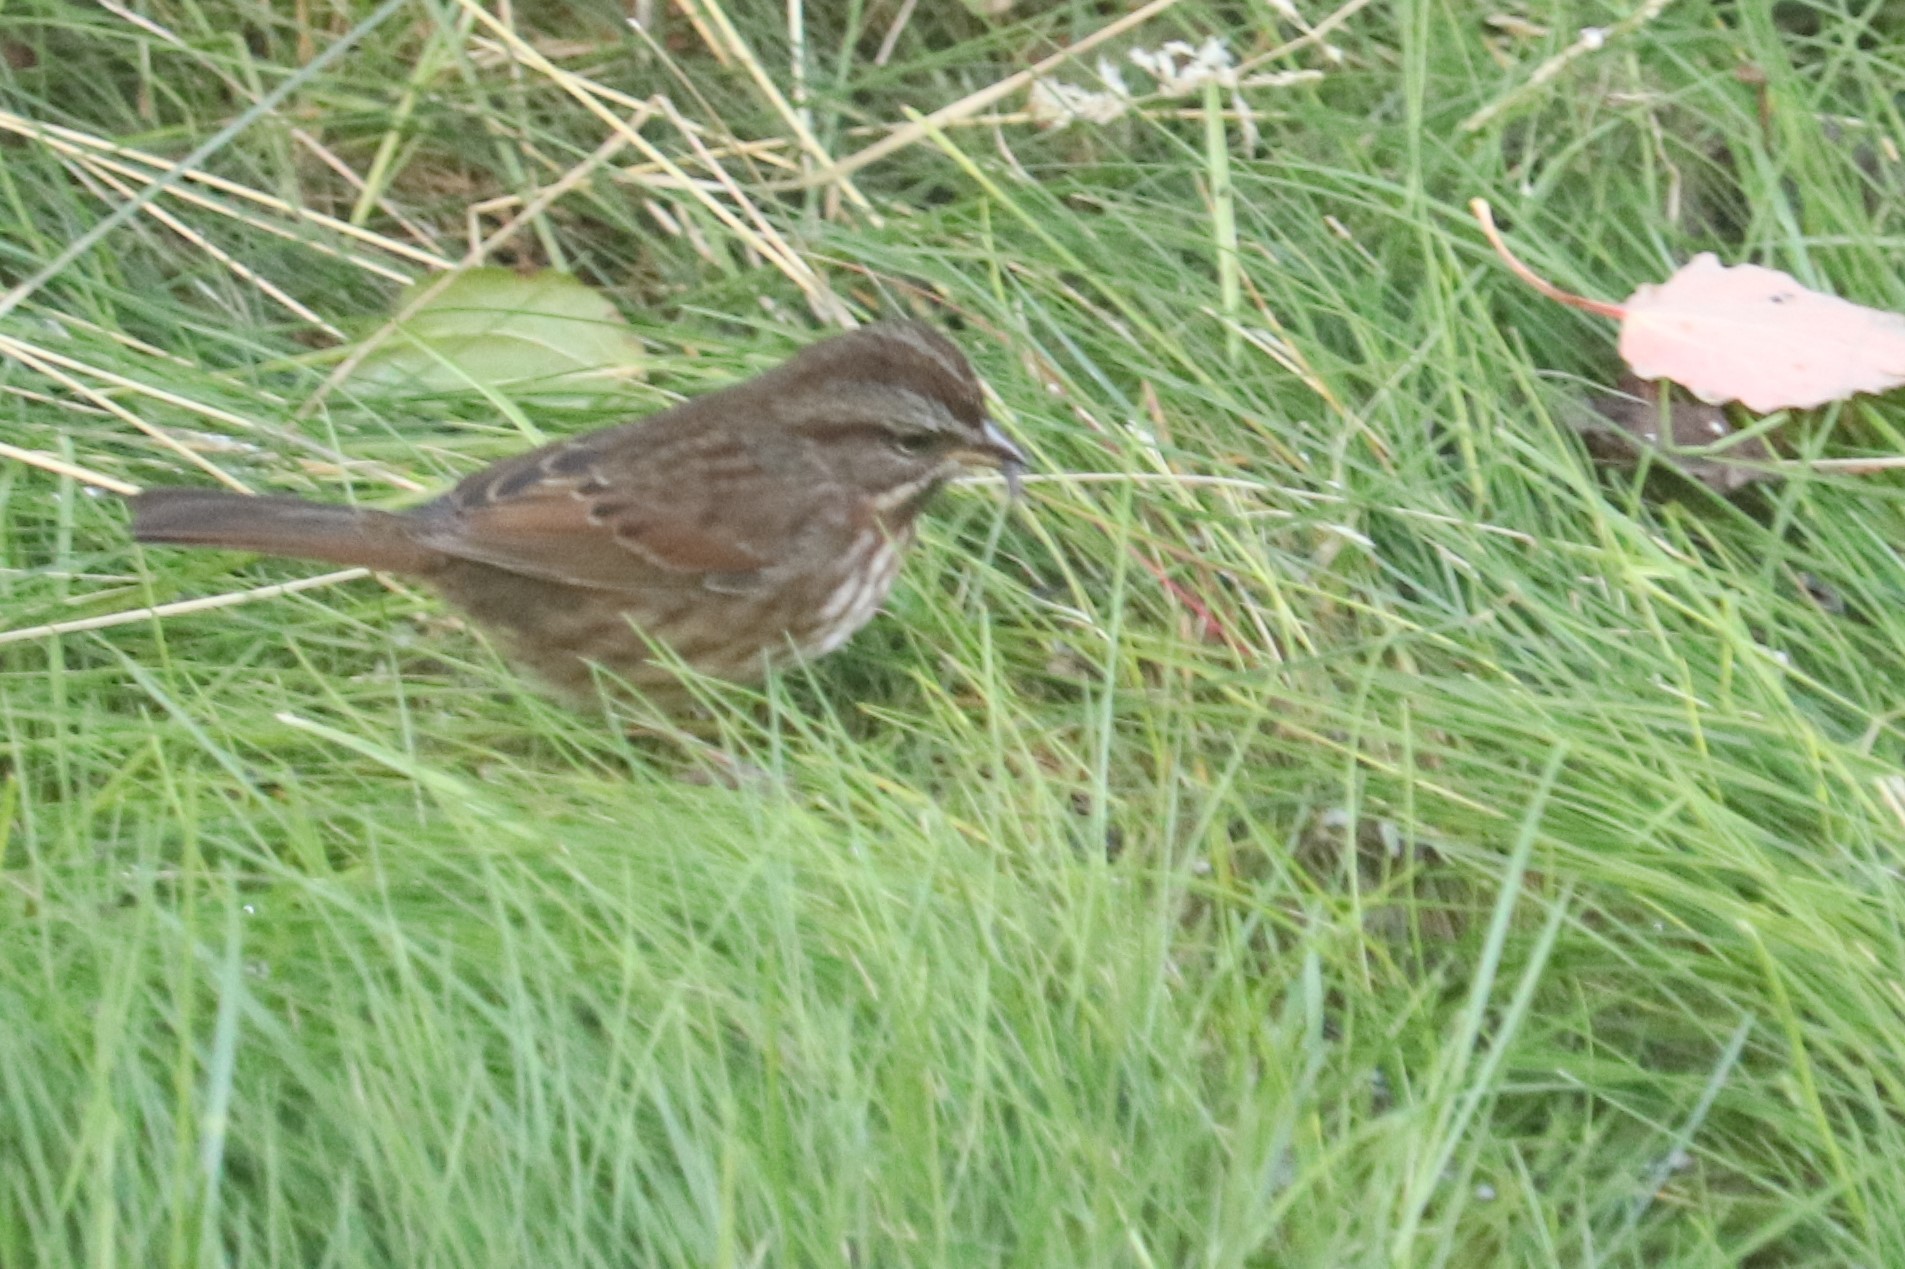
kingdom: Animalia
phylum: Chordata
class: Aves
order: Passeriformes
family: Passerellidae
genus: Melospiza
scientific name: Melospiza melodia
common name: Song sparrow
